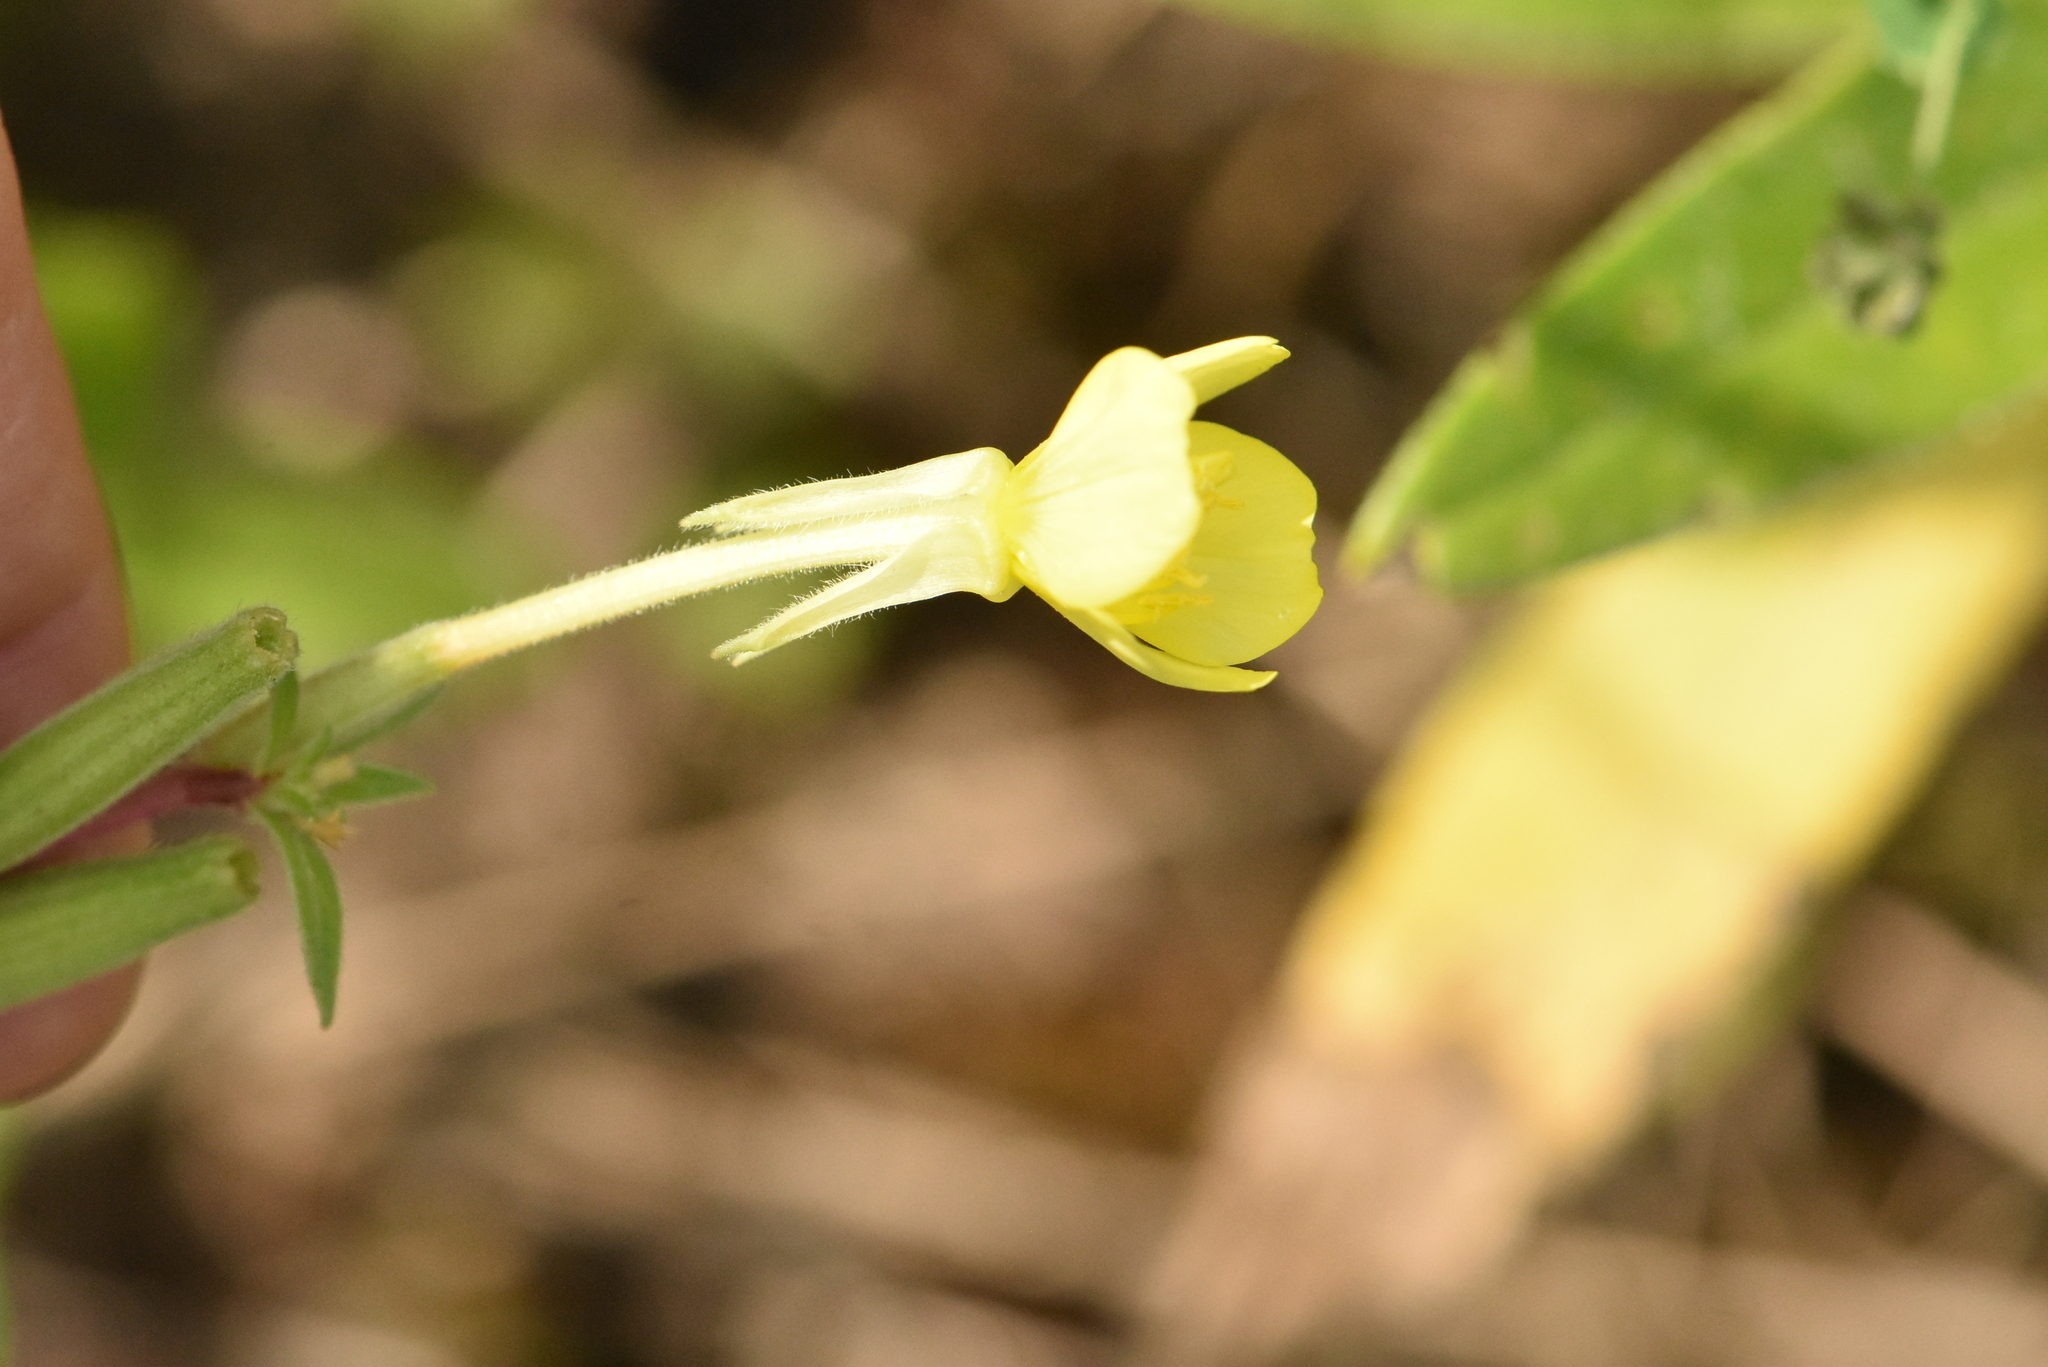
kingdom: Plantae
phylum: Tracheophyta
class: Magnoliopsida
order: Myrtales
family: Onagraceae
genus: Oenothera
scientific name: Oenothera villosa
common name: Hairy evening-primrose
